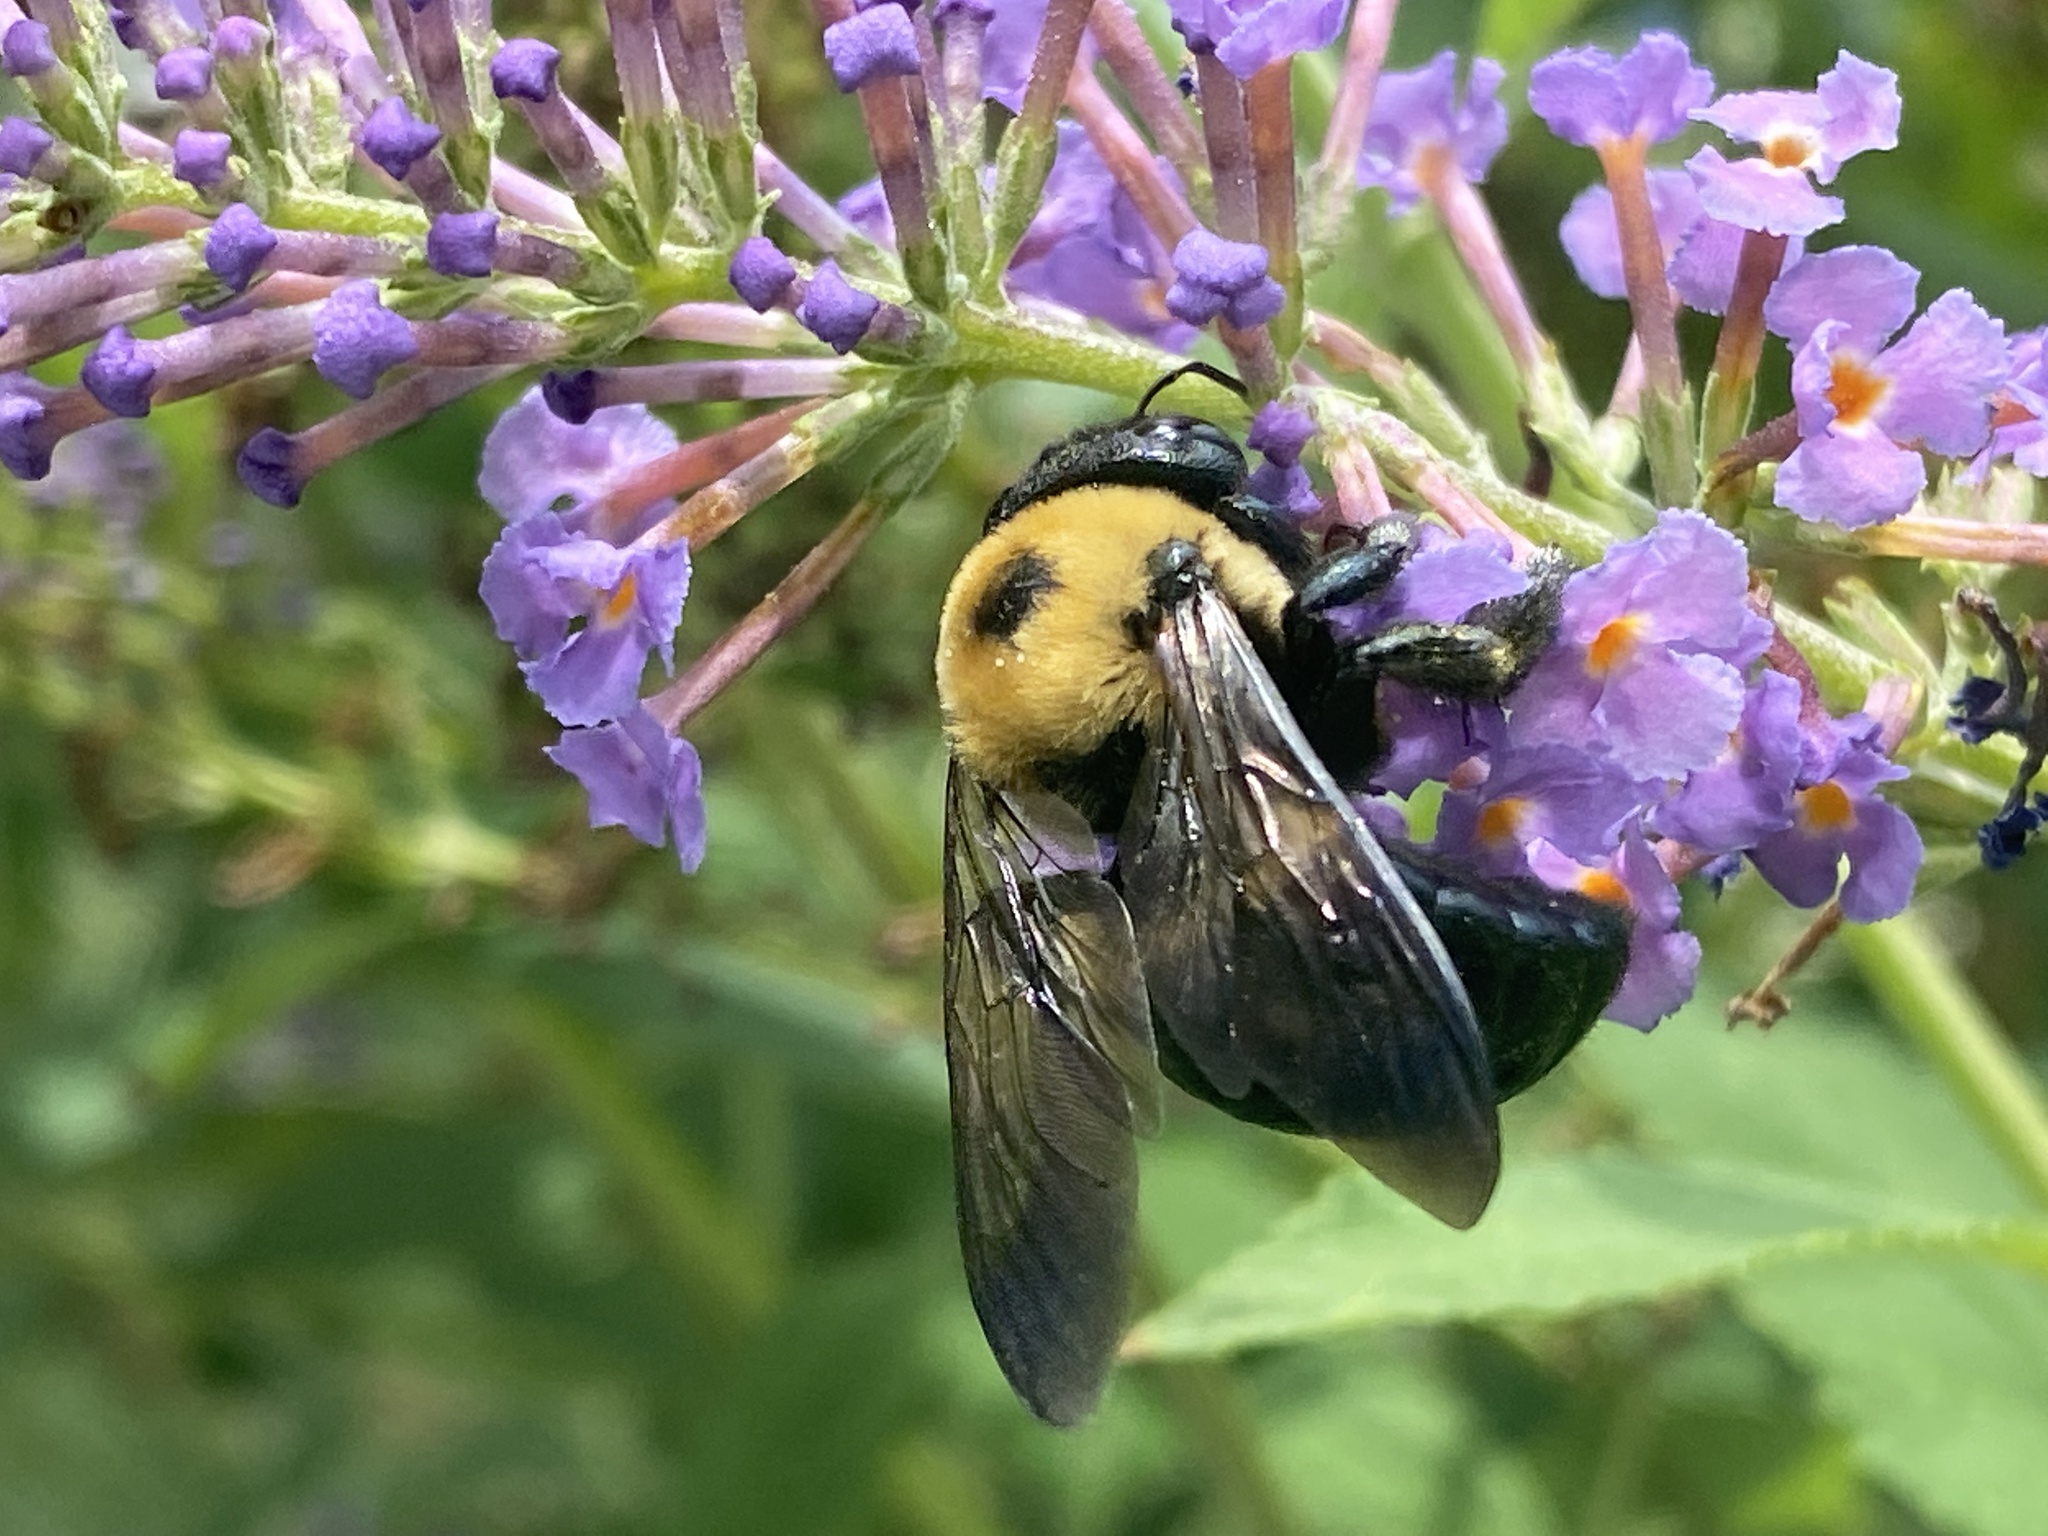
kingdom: Animalia
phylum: Arthropoda
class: Insecta
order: Hymenoptera
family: Apidae
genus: Xylocopa
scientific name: Xylocopa virginica
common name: Carpenter bee
